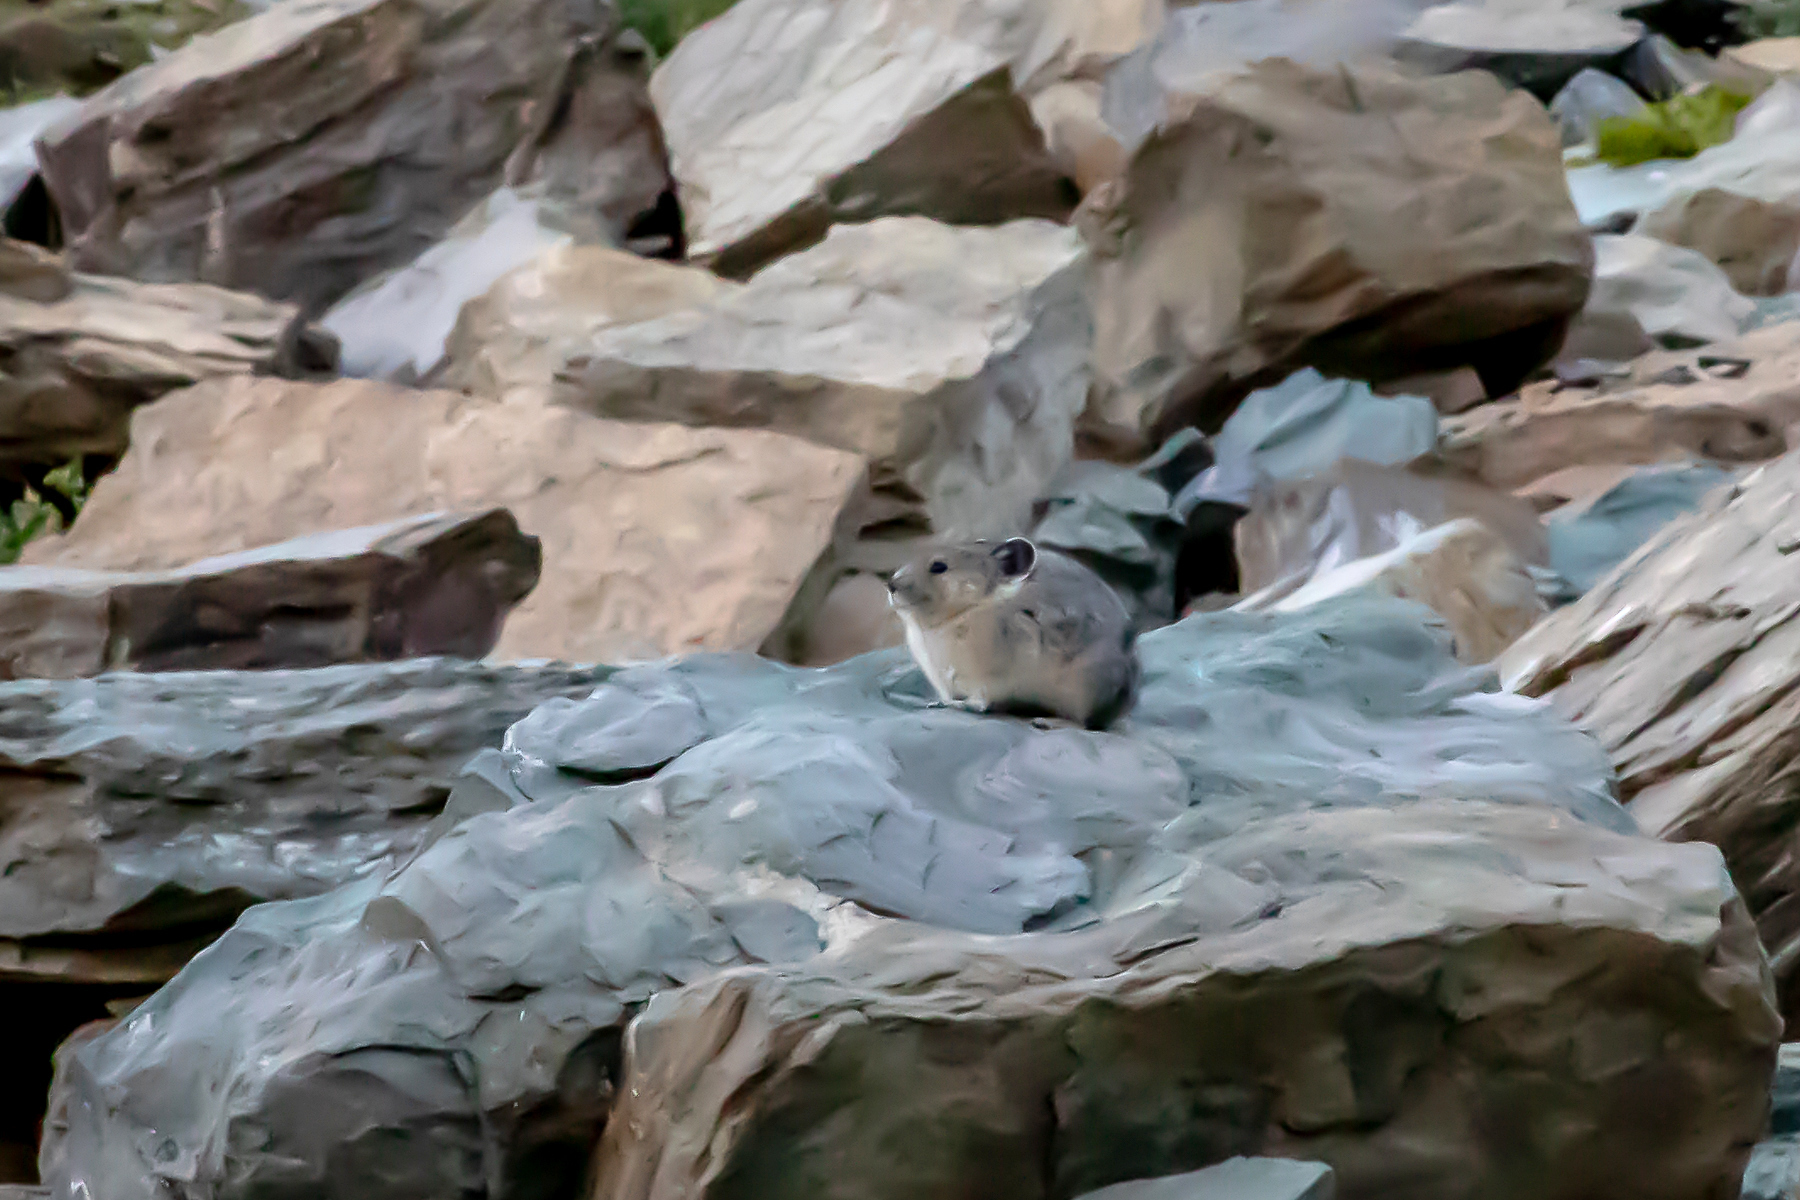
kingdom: Animalia
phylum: Chordata
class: Mammalia
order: Lagomorpha
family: Ochotonidae
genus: Ochotona
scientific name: Ochotona princeps
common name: American pika
